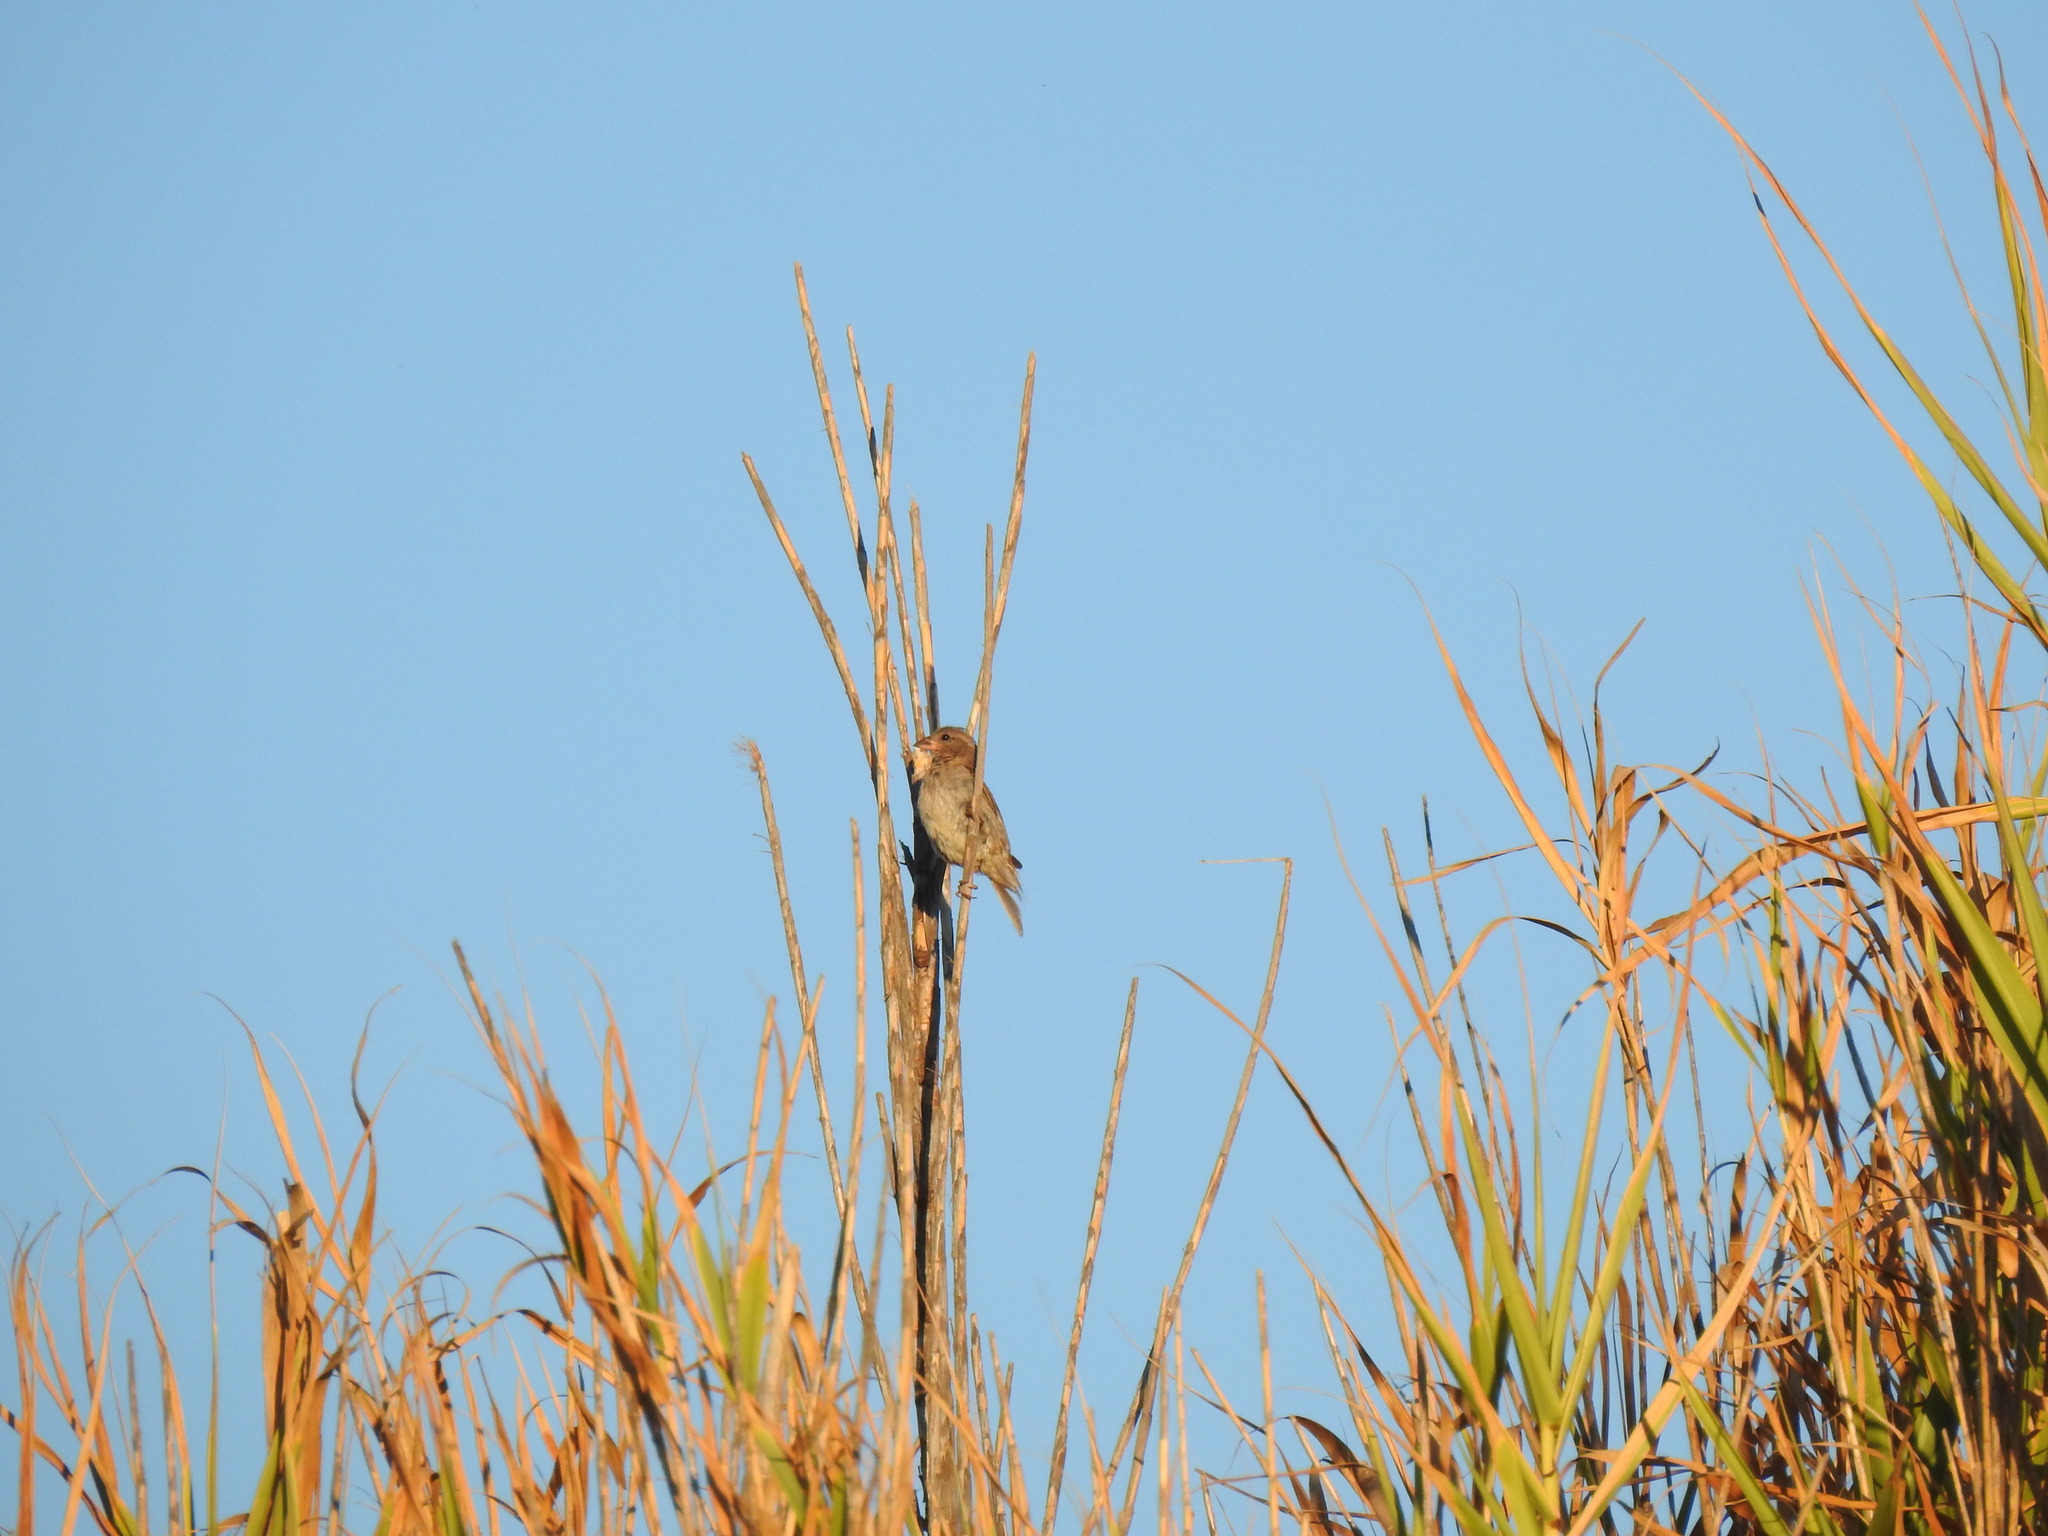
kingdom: Animalia
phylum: Chordata
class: Aves
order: Passeriformes
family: Passeridae
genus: Passer
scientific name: Passer domesticus
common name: House sparrow
